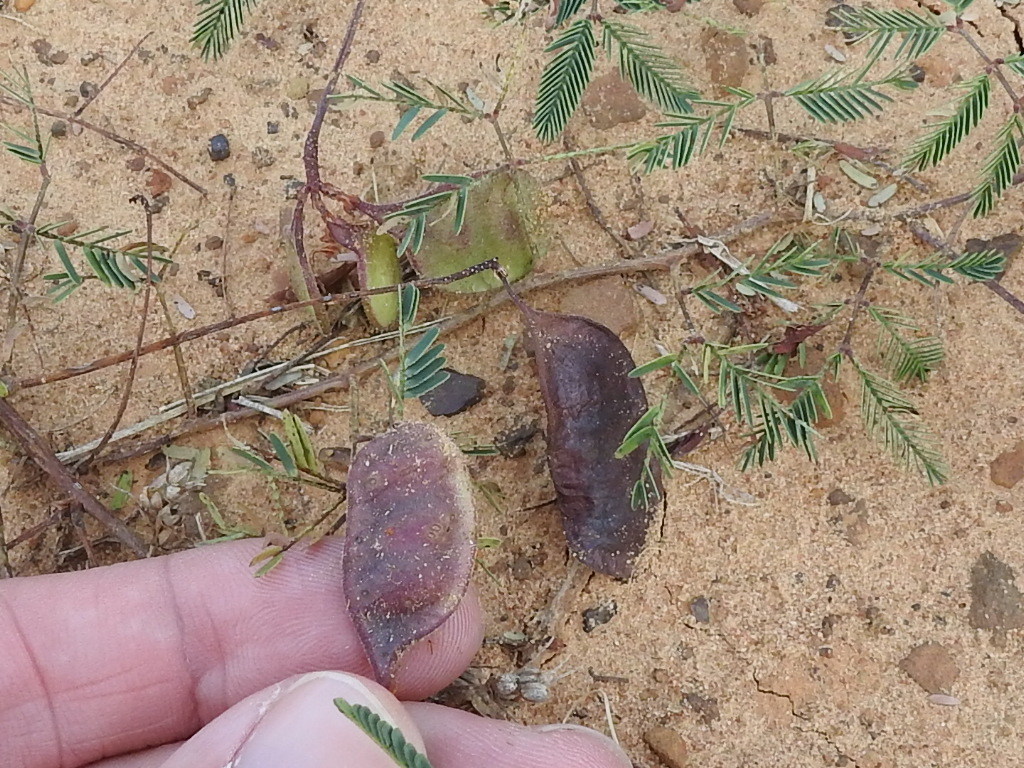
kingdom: Plantae
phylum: Tracheophyta
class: Magnoliopsida
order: Fabales
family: Fabaceae
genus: Neptunia
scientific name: Neptunia lutea
